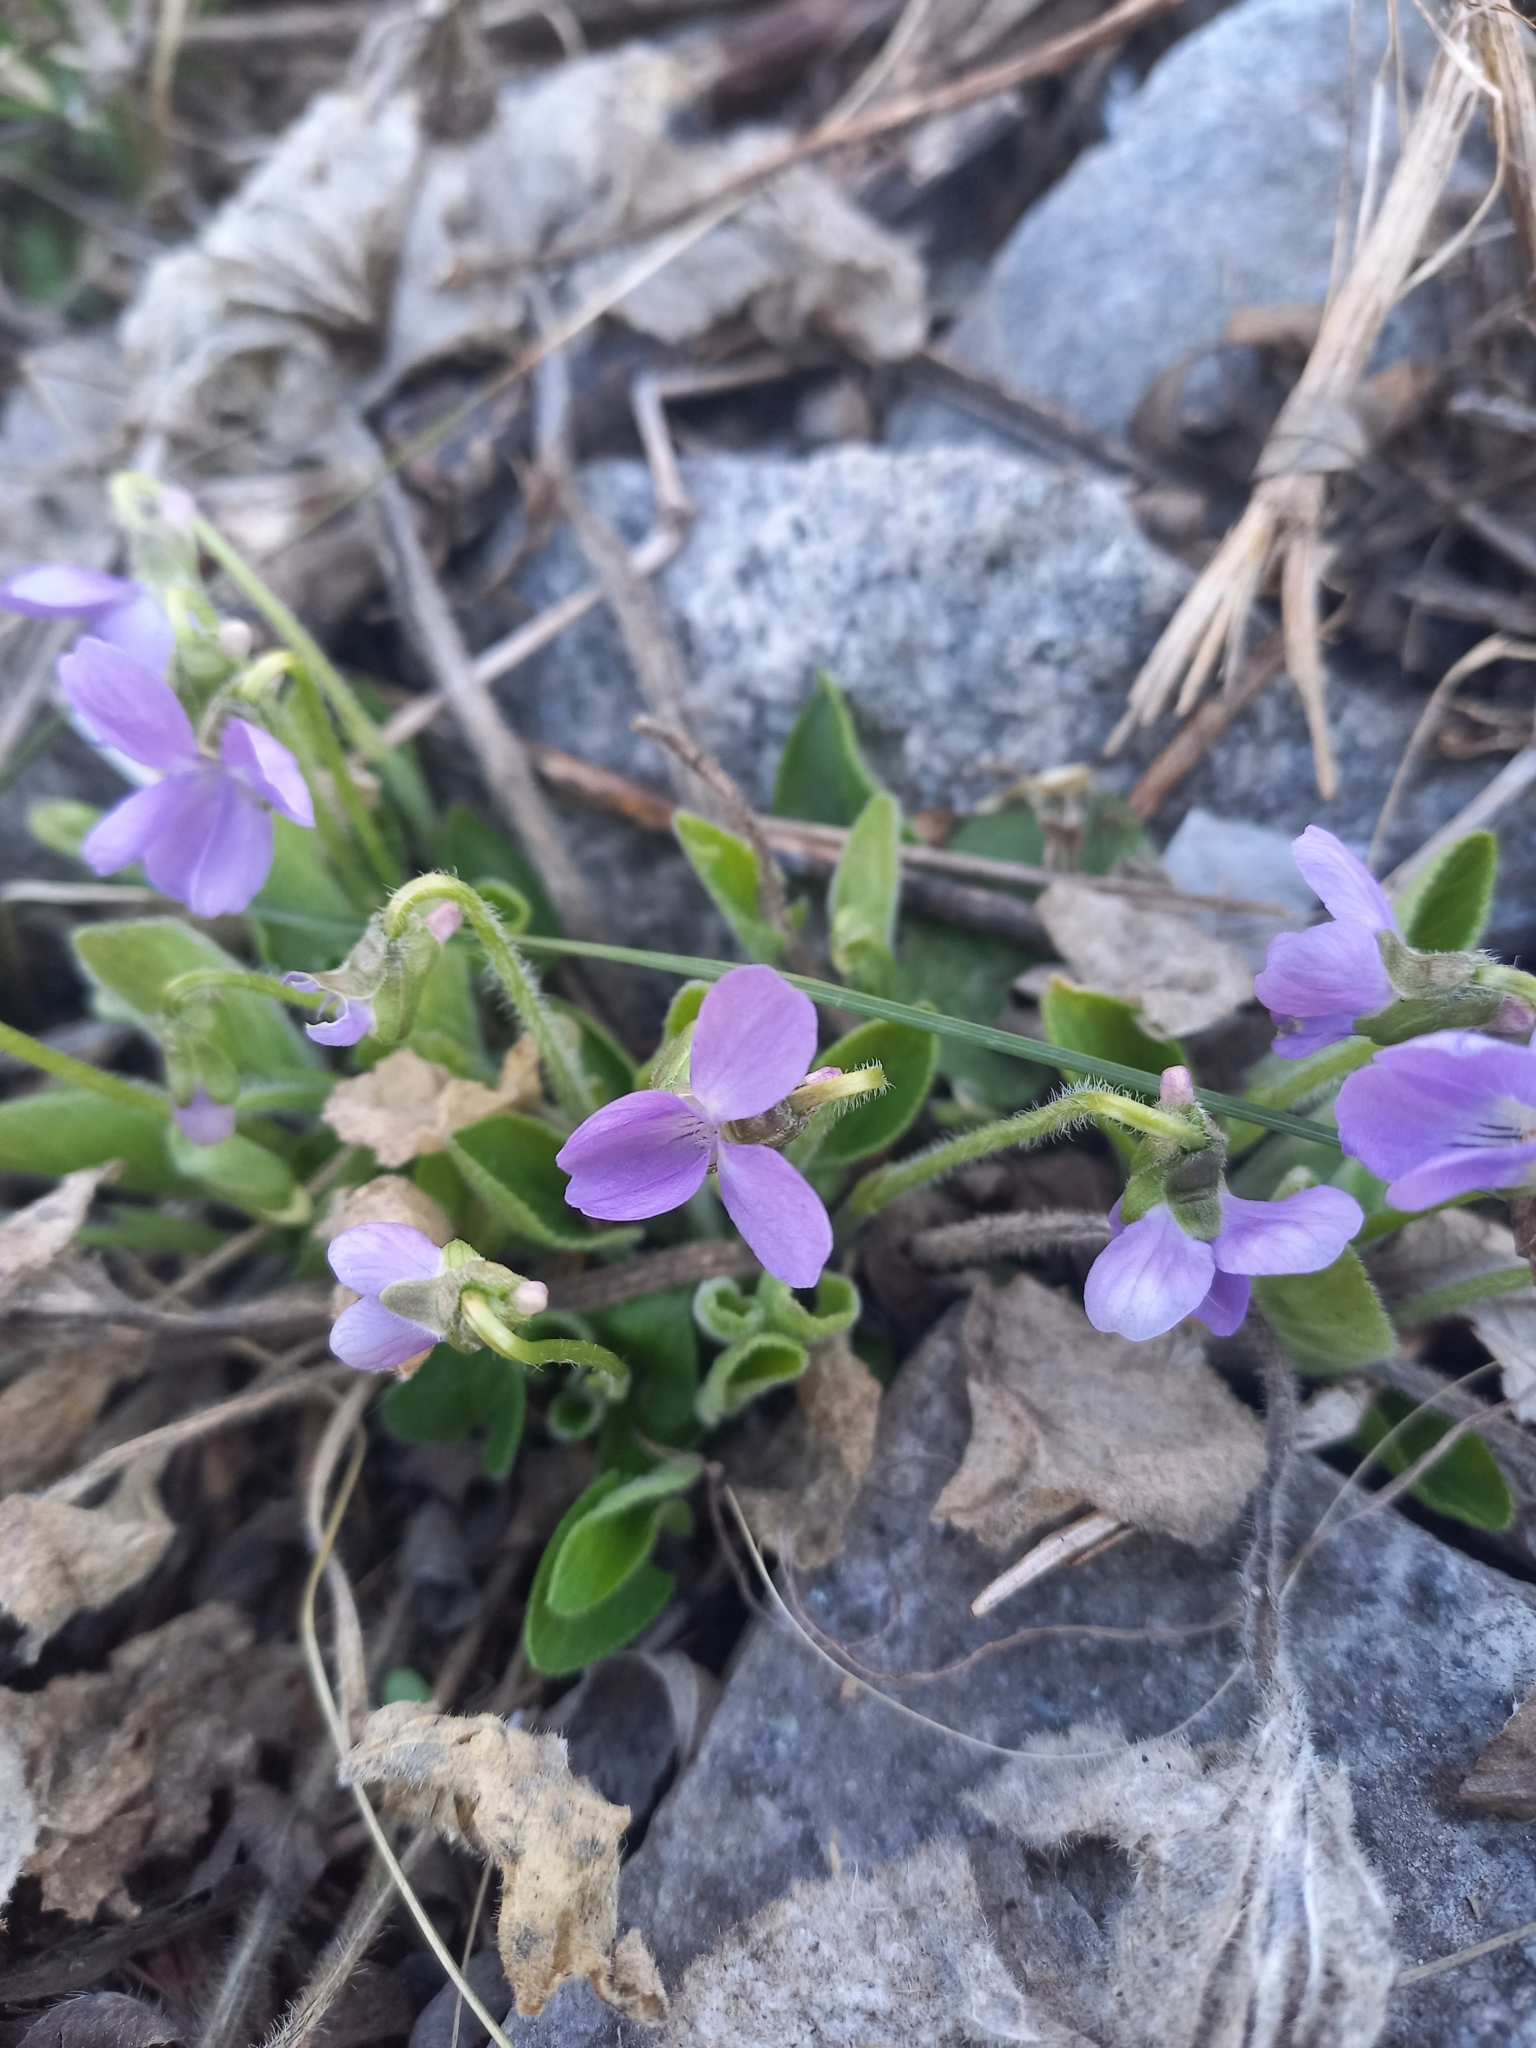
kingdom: Plantae
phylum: Tracheophyta
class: Magnoliopsida
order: Malpighiales
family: Violaceae
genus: Viola
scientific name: Viola hirta
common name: Hairy violet
